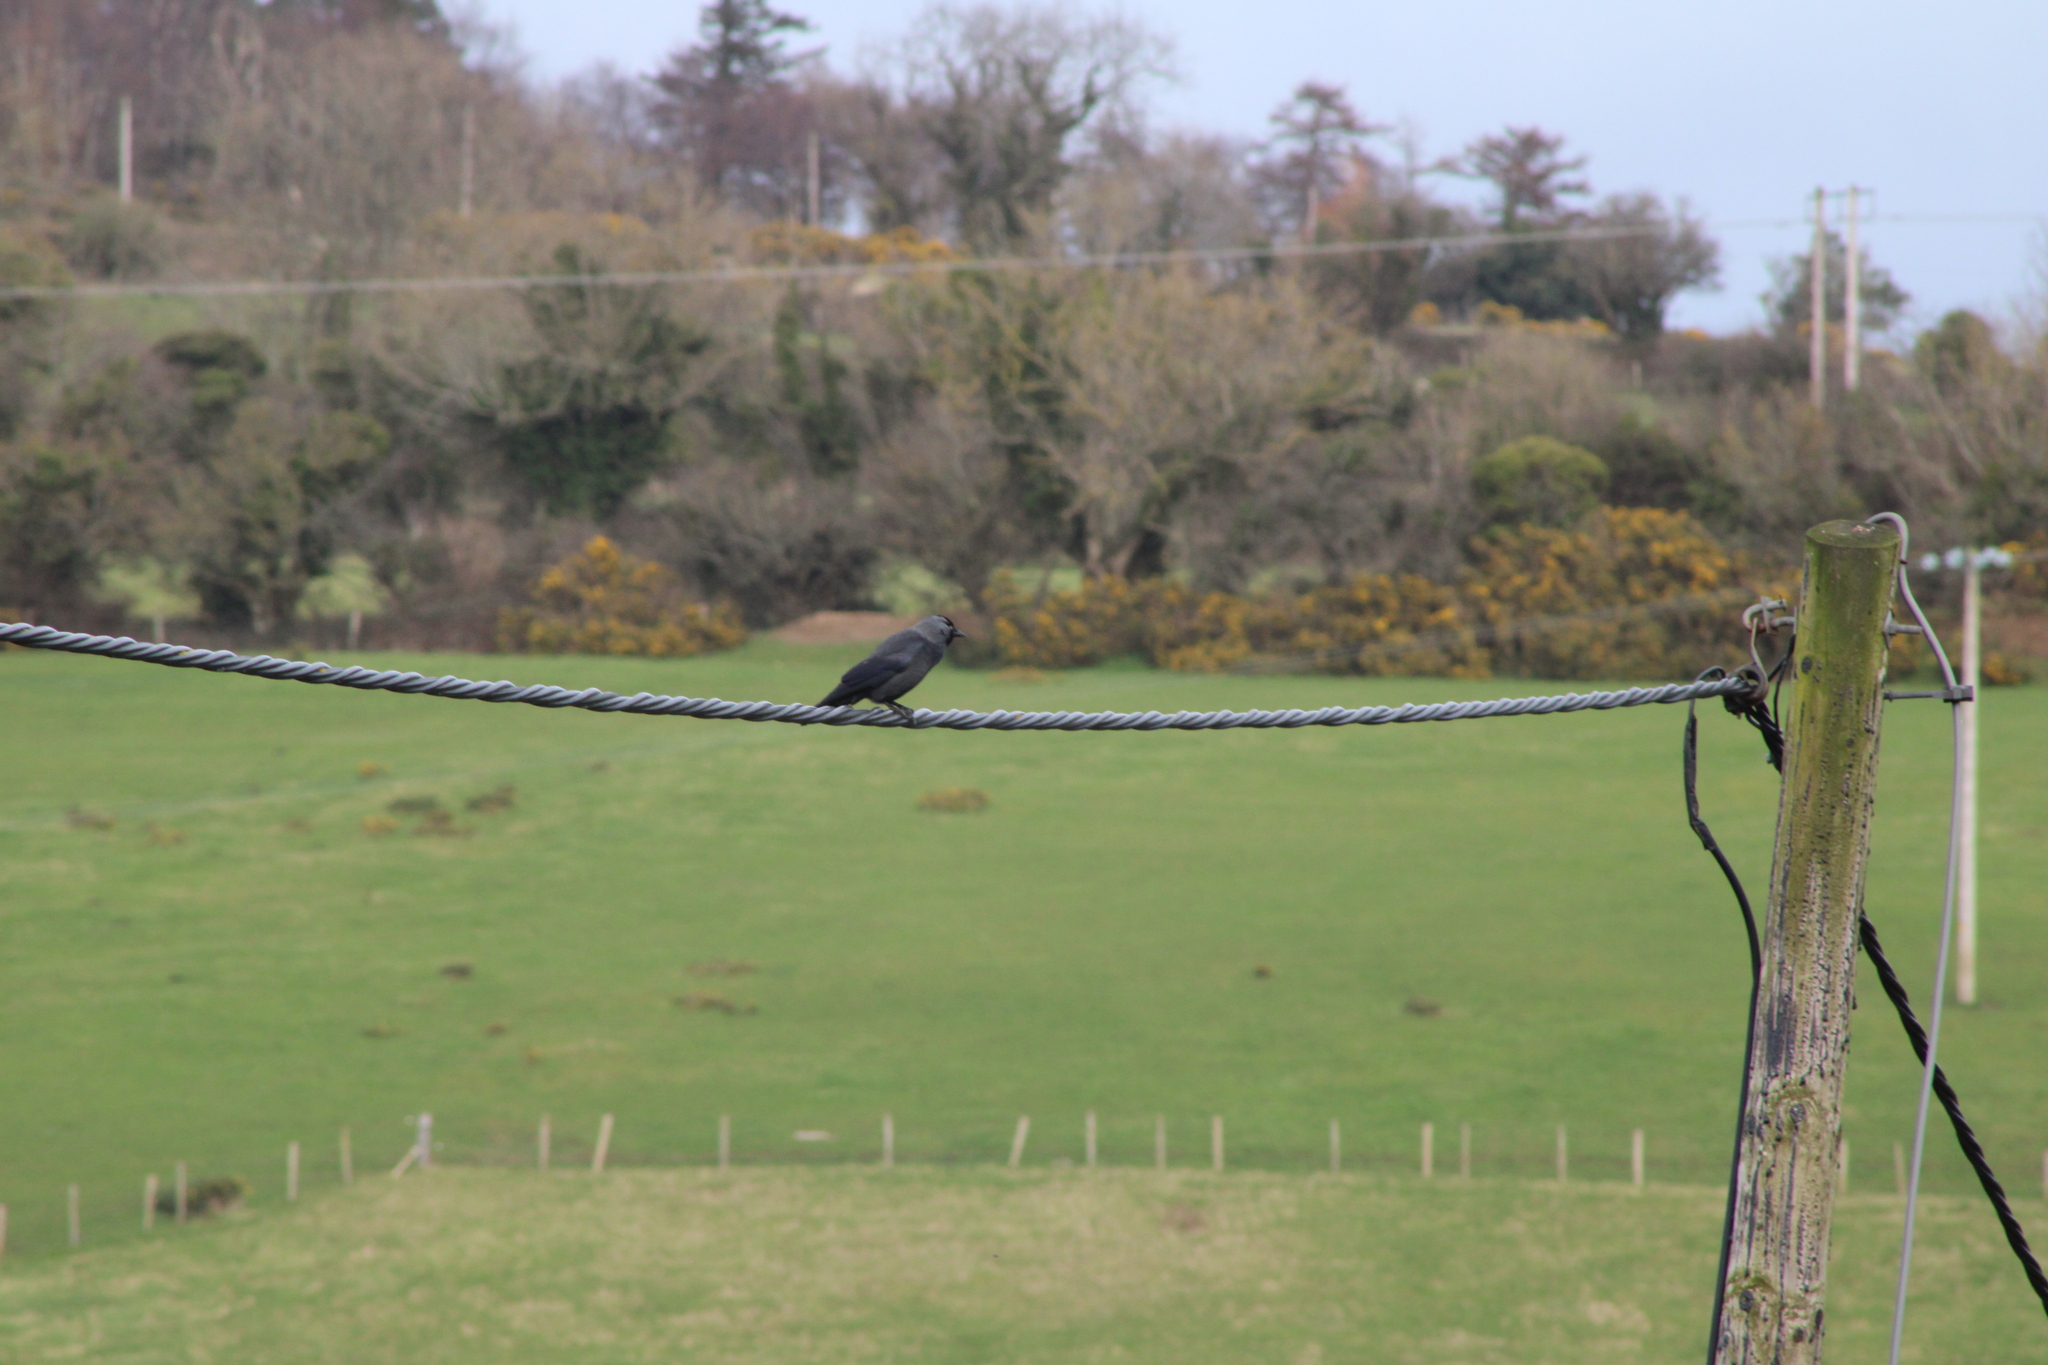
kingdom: Animalia
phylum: Chordata
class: Aves
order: Passeriformes
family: Corvidae
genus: Coloeus
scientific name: Coloeus monedula
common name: Western jackdaw
